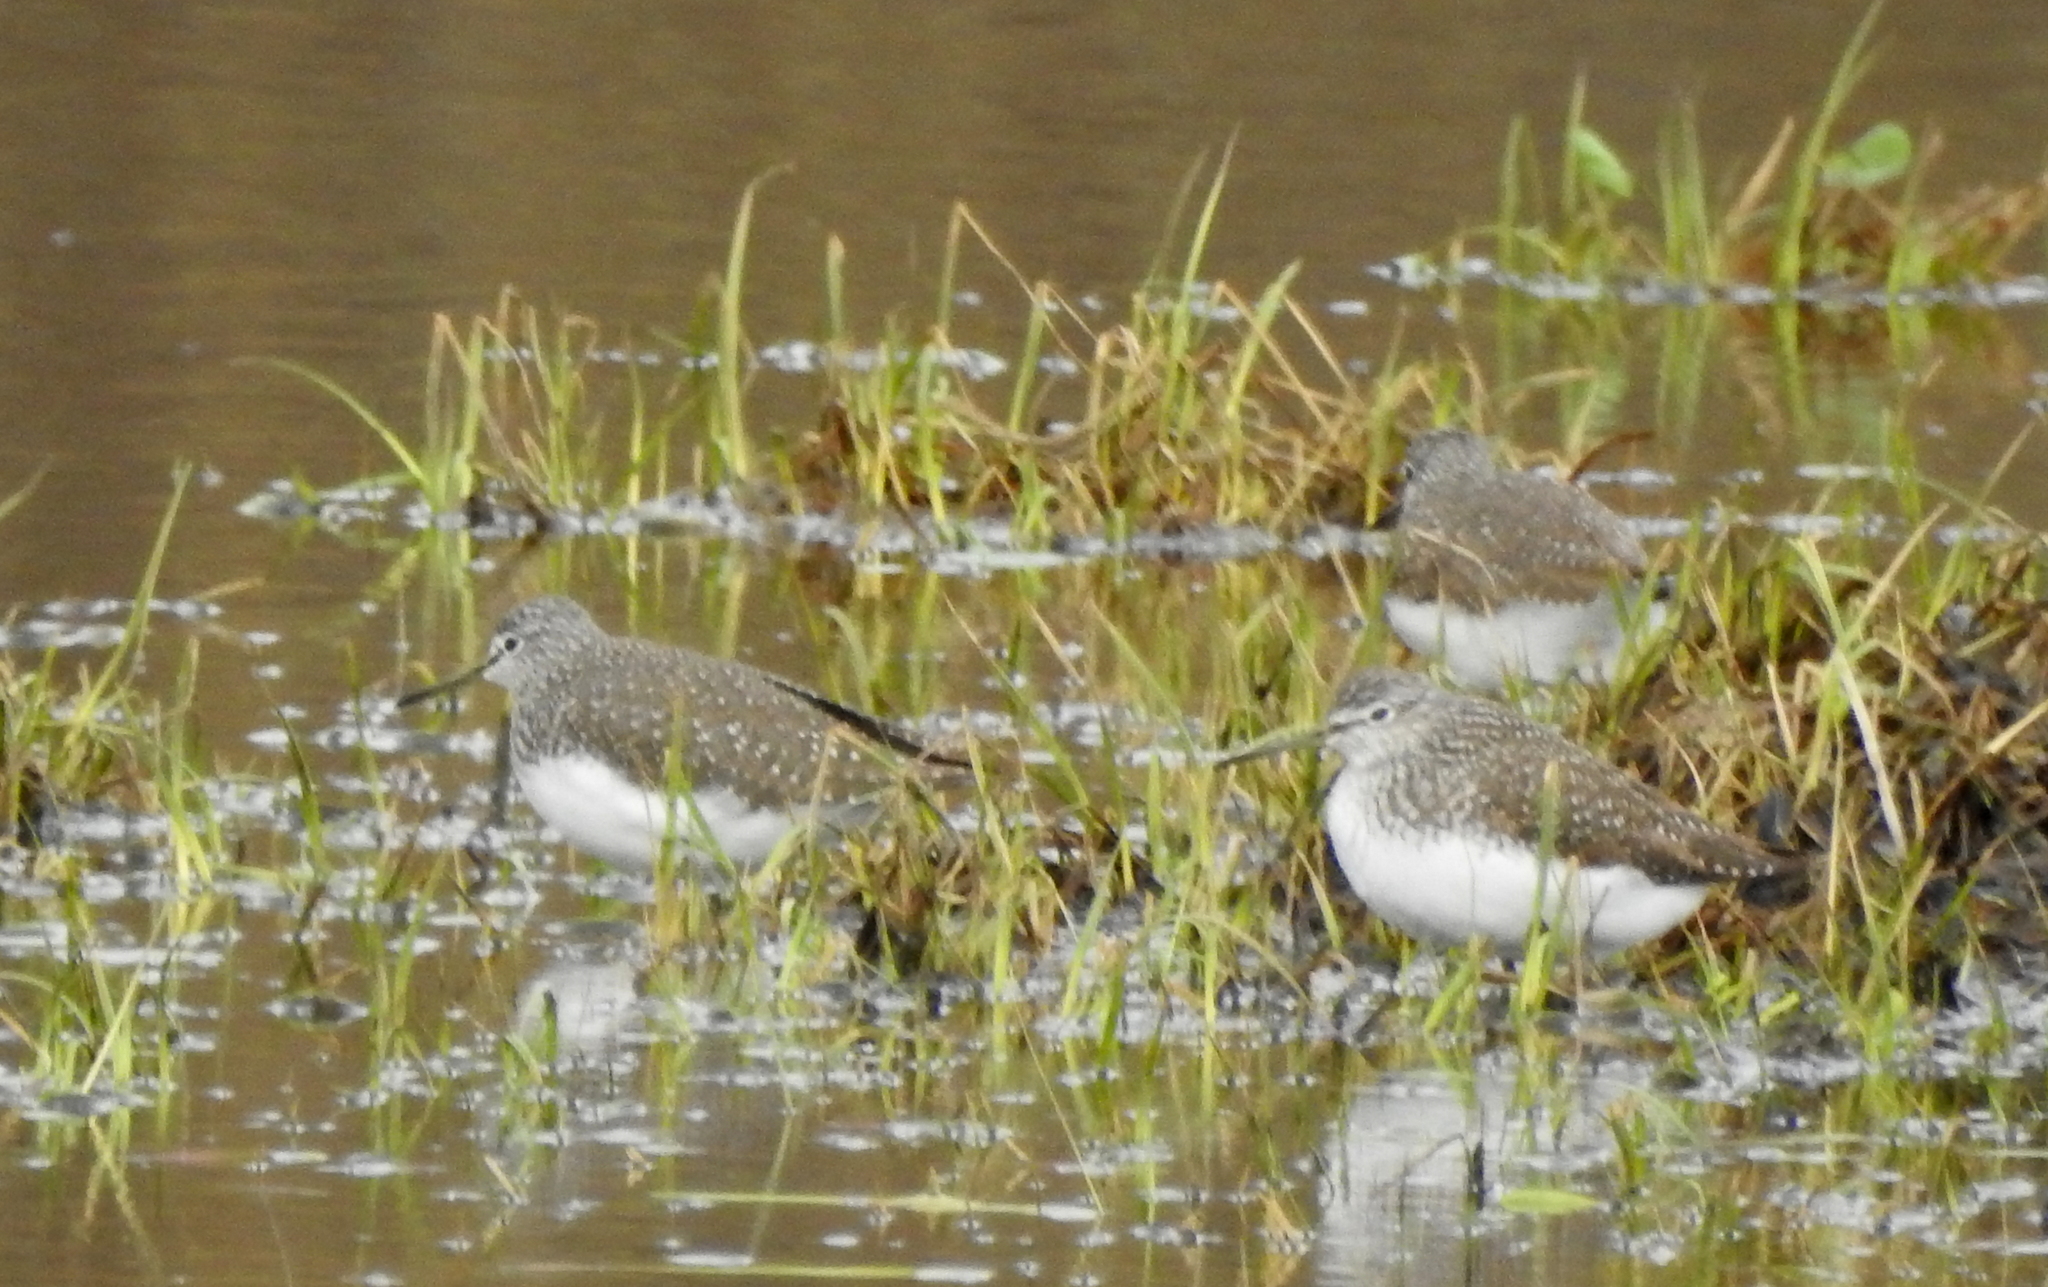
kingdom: Animalia
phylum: Chordata
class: Aves
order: Charadriiformes
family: Scolopacidae
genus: Tringa
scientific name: Tringa ochropus
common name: Green sandpiper
